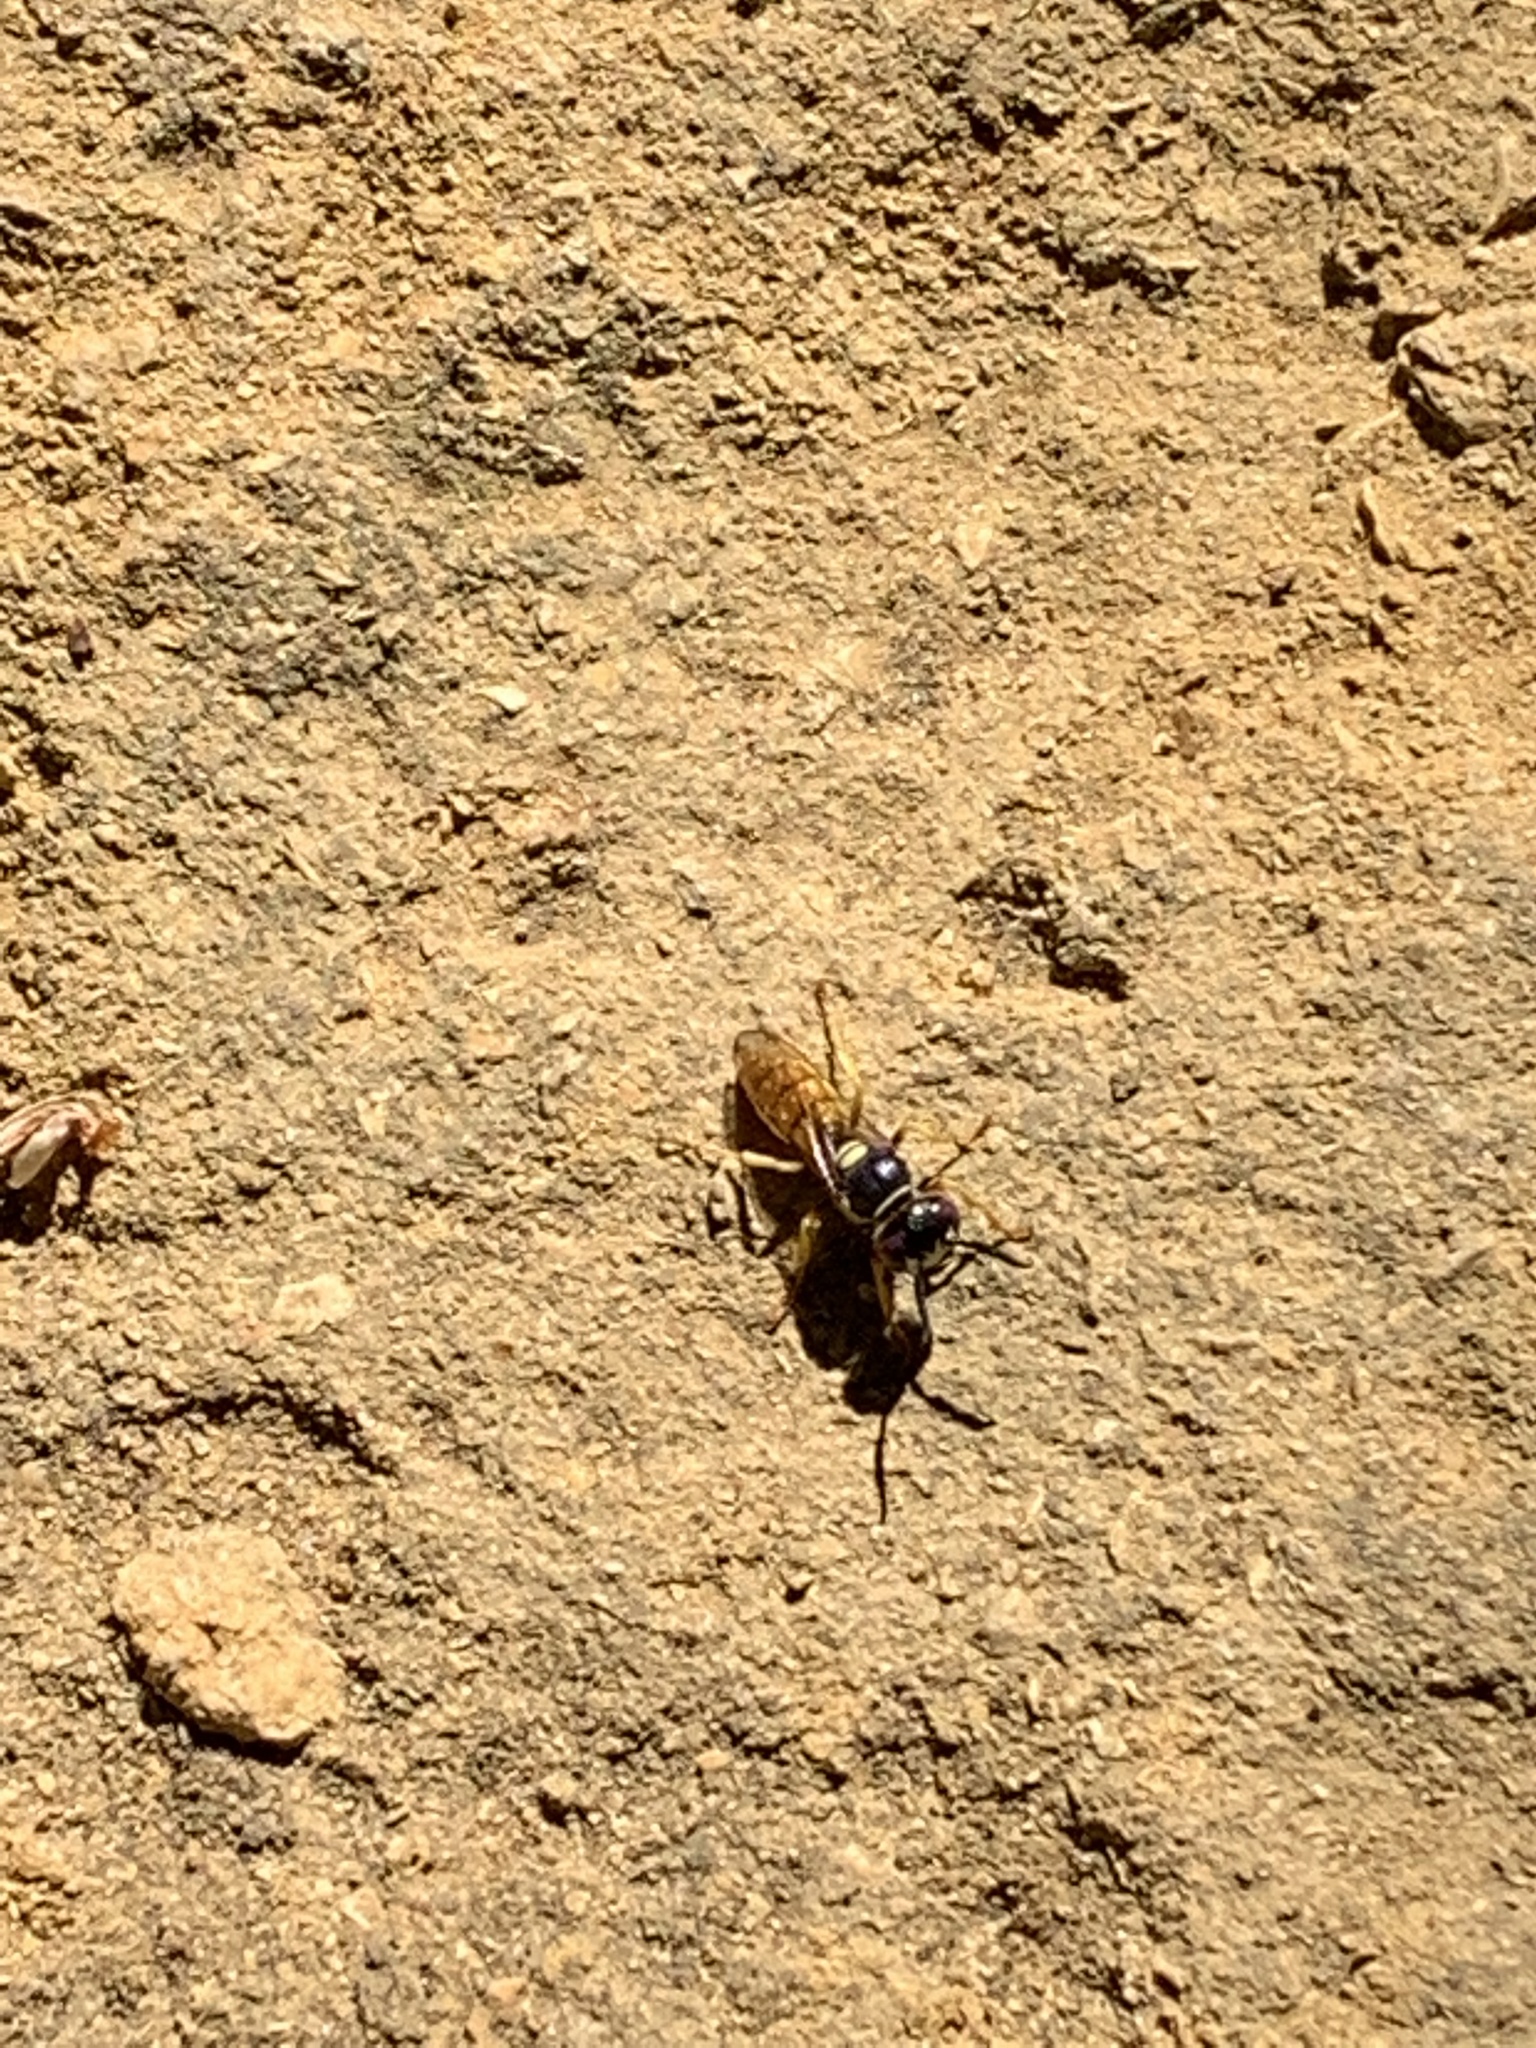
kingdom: Animalia
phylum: Arthropoda
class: Insecta
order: Hymenoptera
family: Crabronidae
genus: Philanthus
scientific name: Philanthus triangulum
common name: Bee wolf
